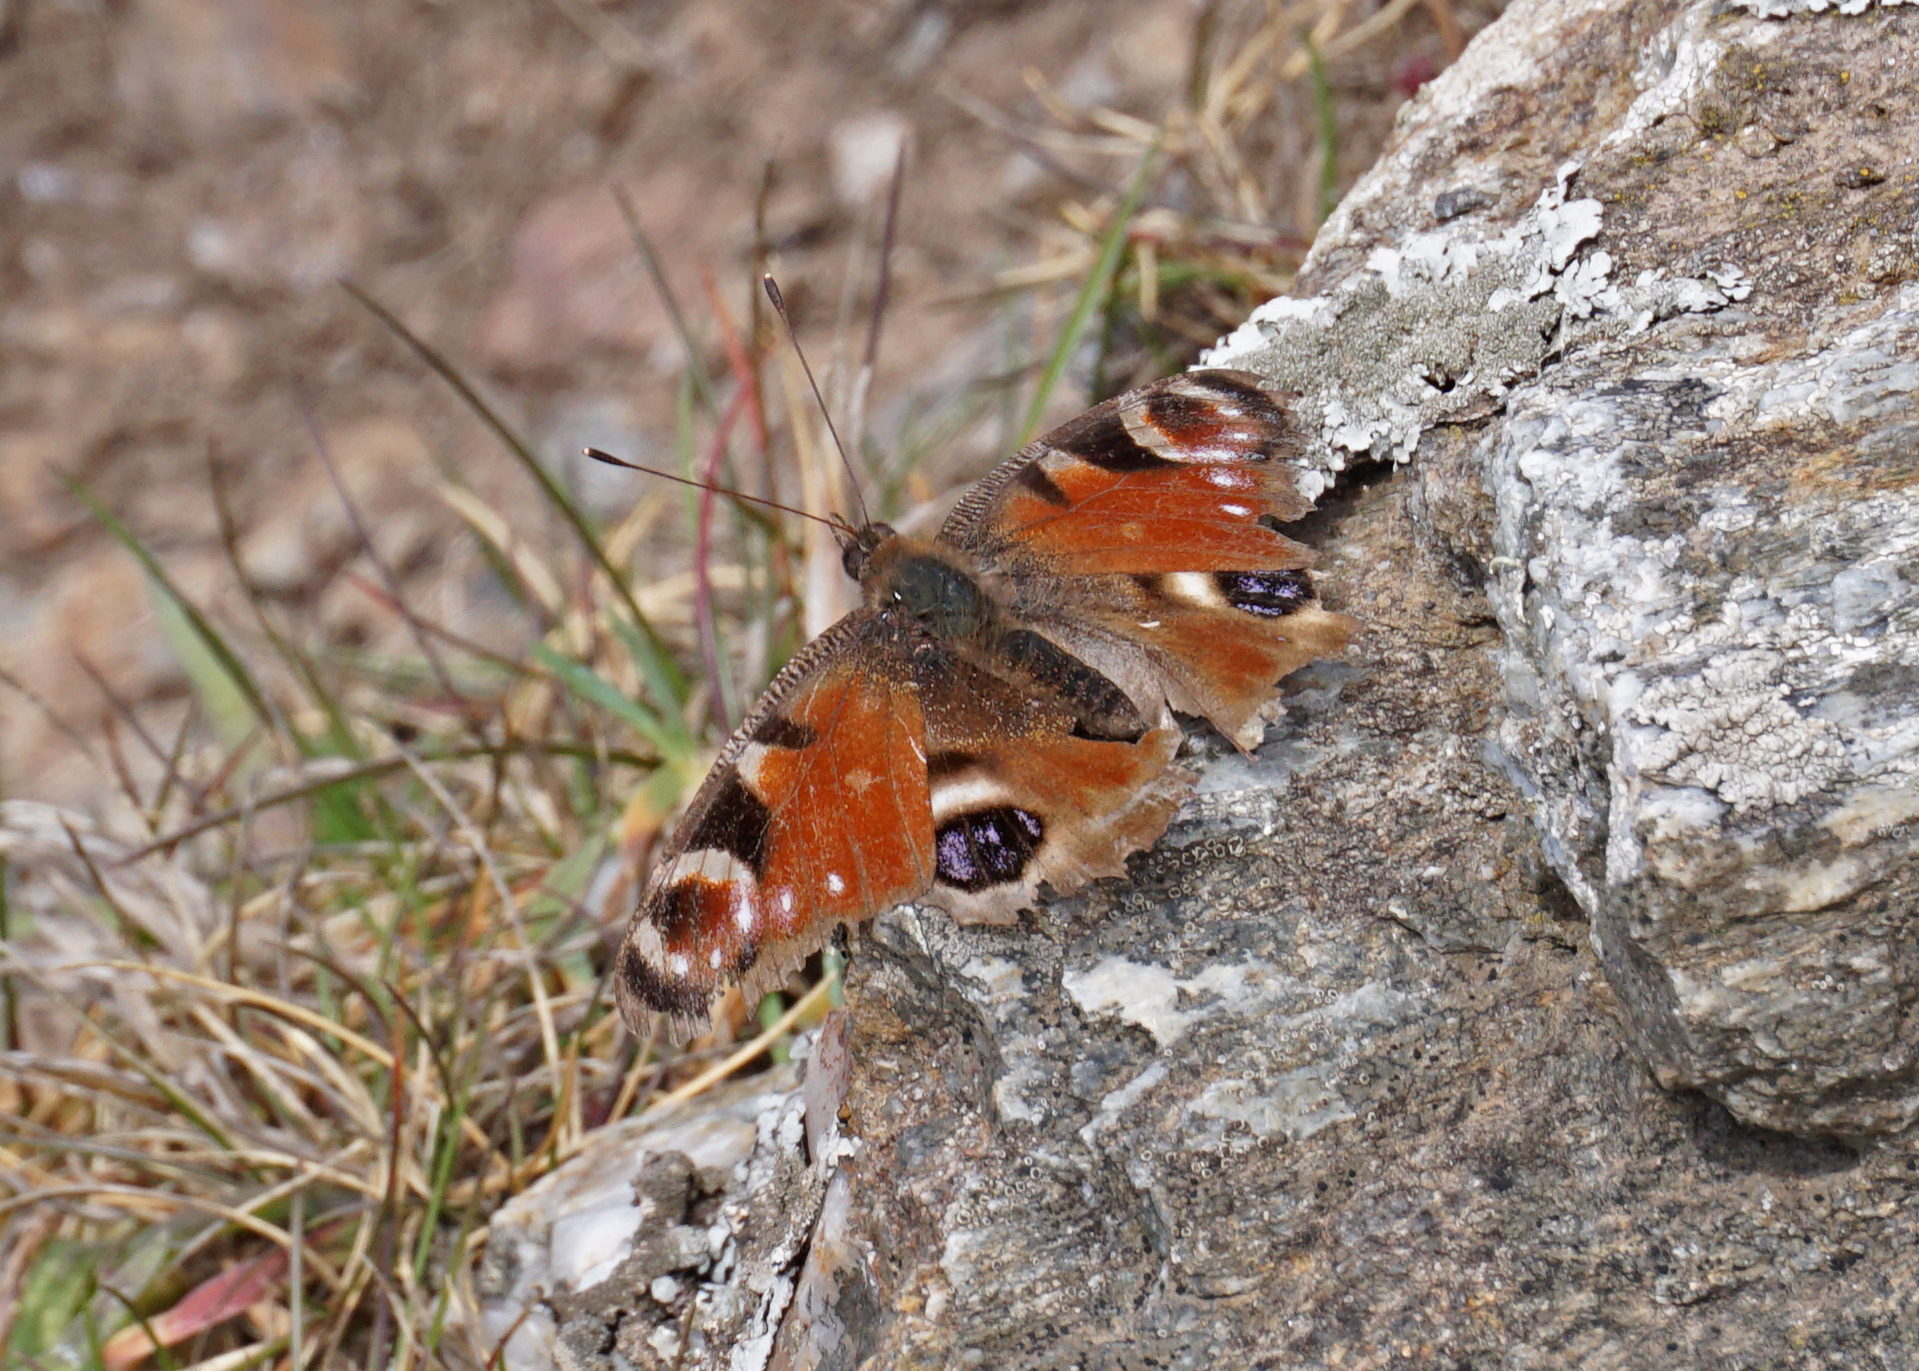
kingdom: Animalia
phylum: Arthropoda
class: Insecta
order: Lepidoptera
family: Nymphalidae
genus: Aglais
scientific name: Aglais io
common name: Peacock
